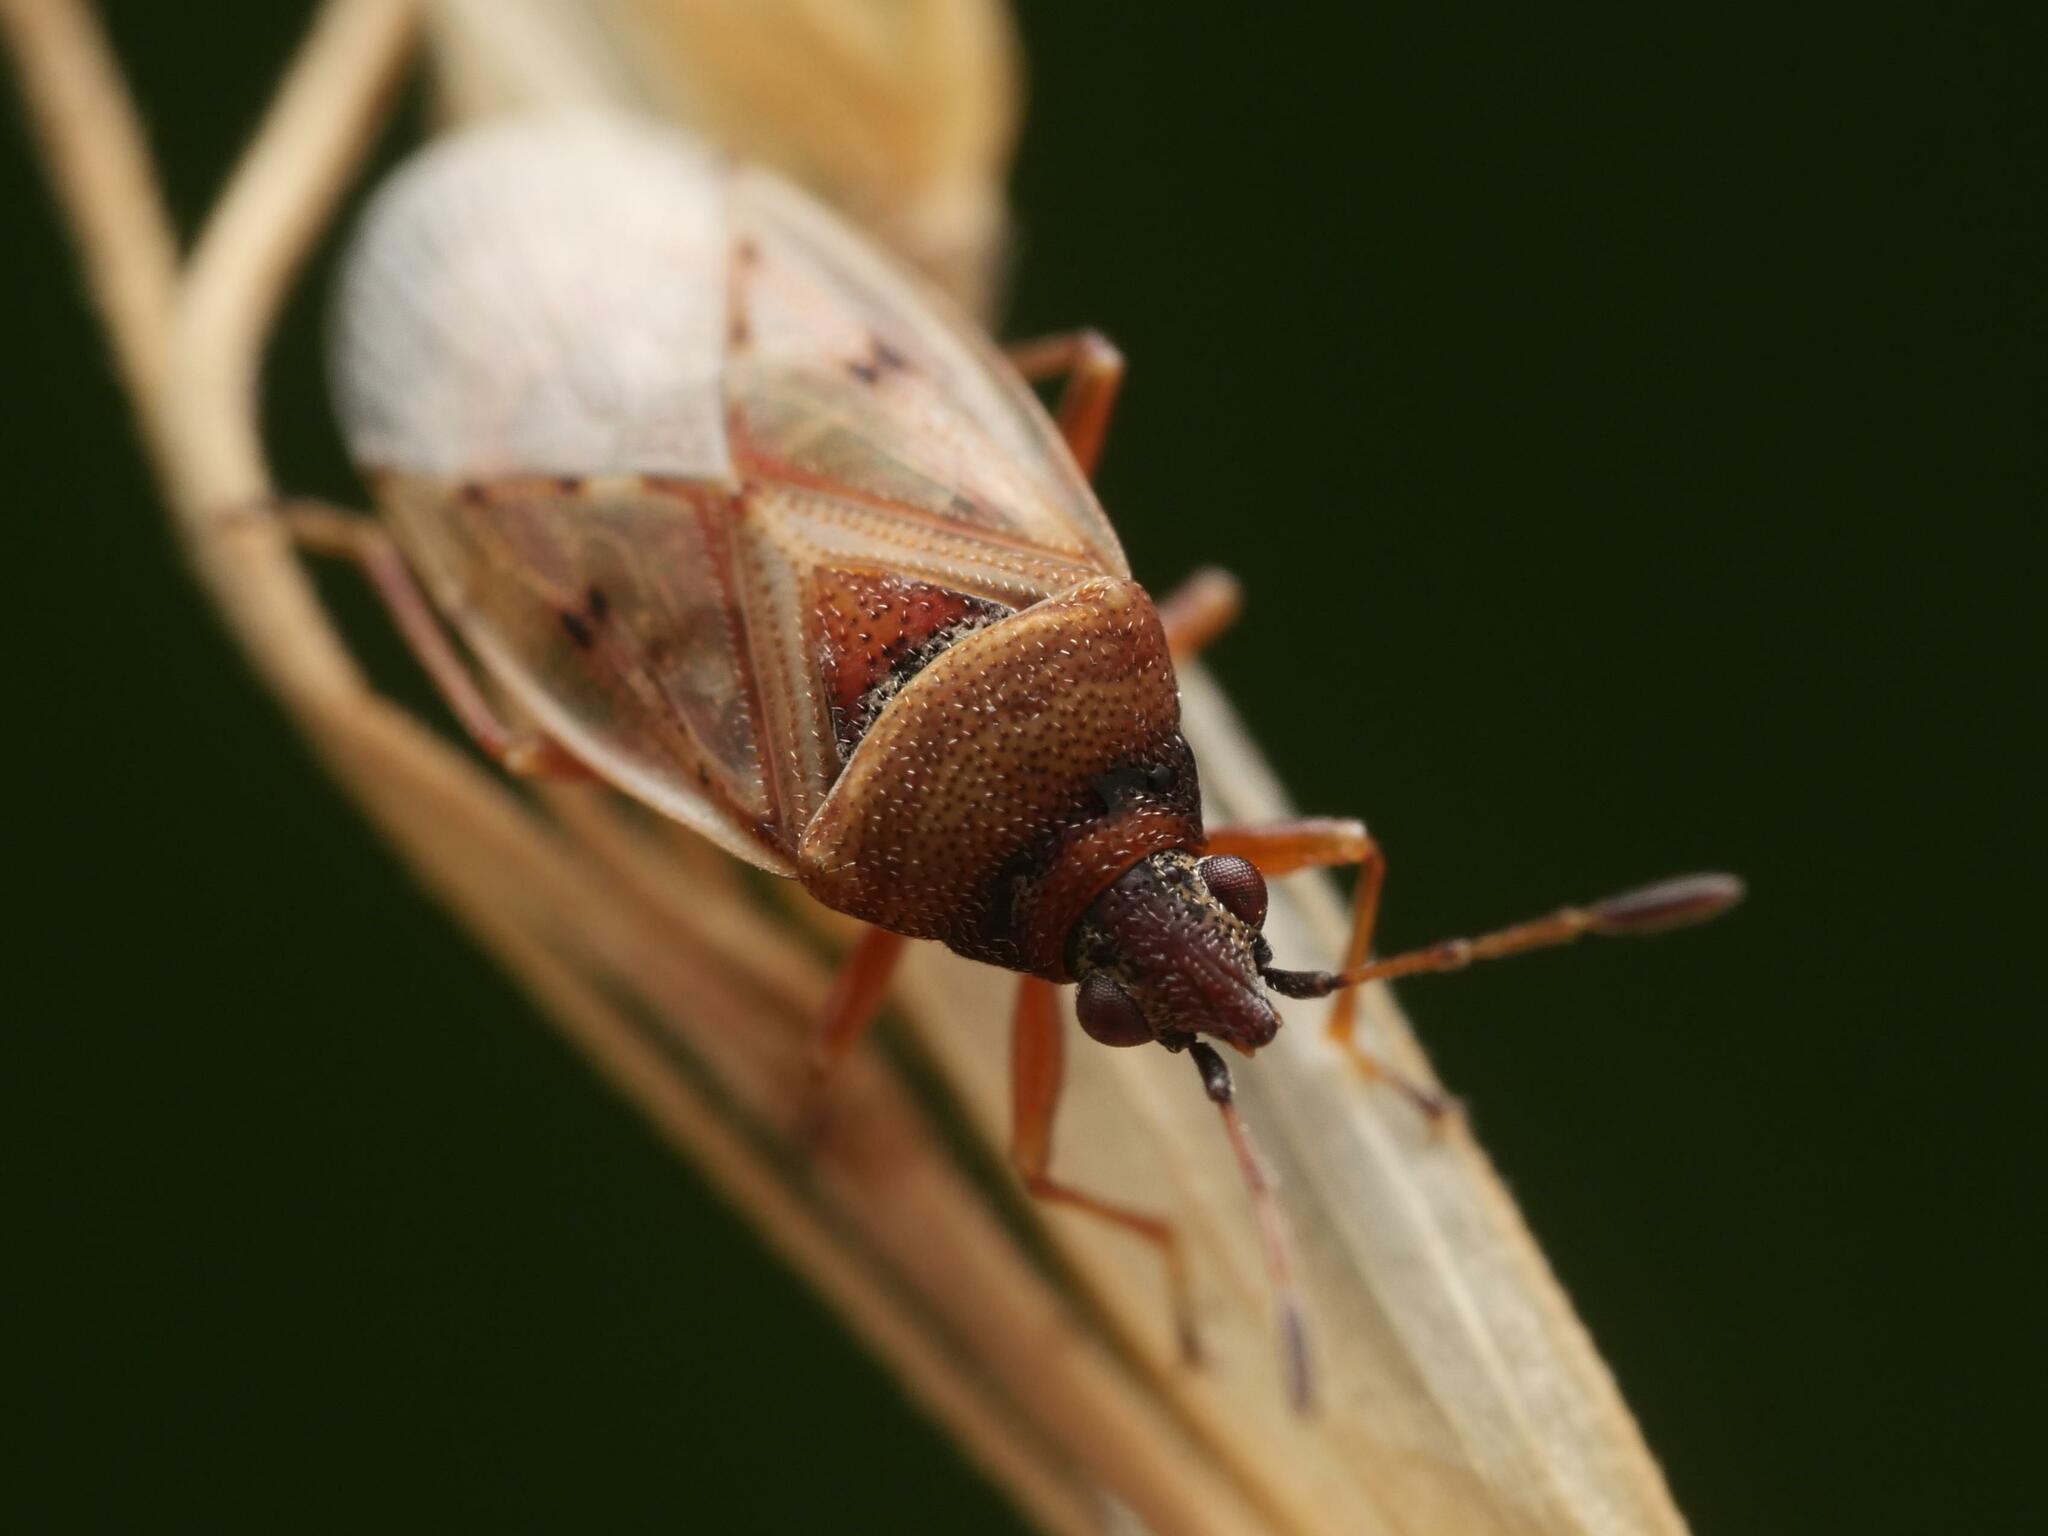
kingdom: Animalia
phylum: Arthropoda
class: Insecta
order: Hemiptera
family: Lygaeidae
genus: Kleidocerys
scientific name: Kleidocerys resedae
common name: Birch catkin bug
